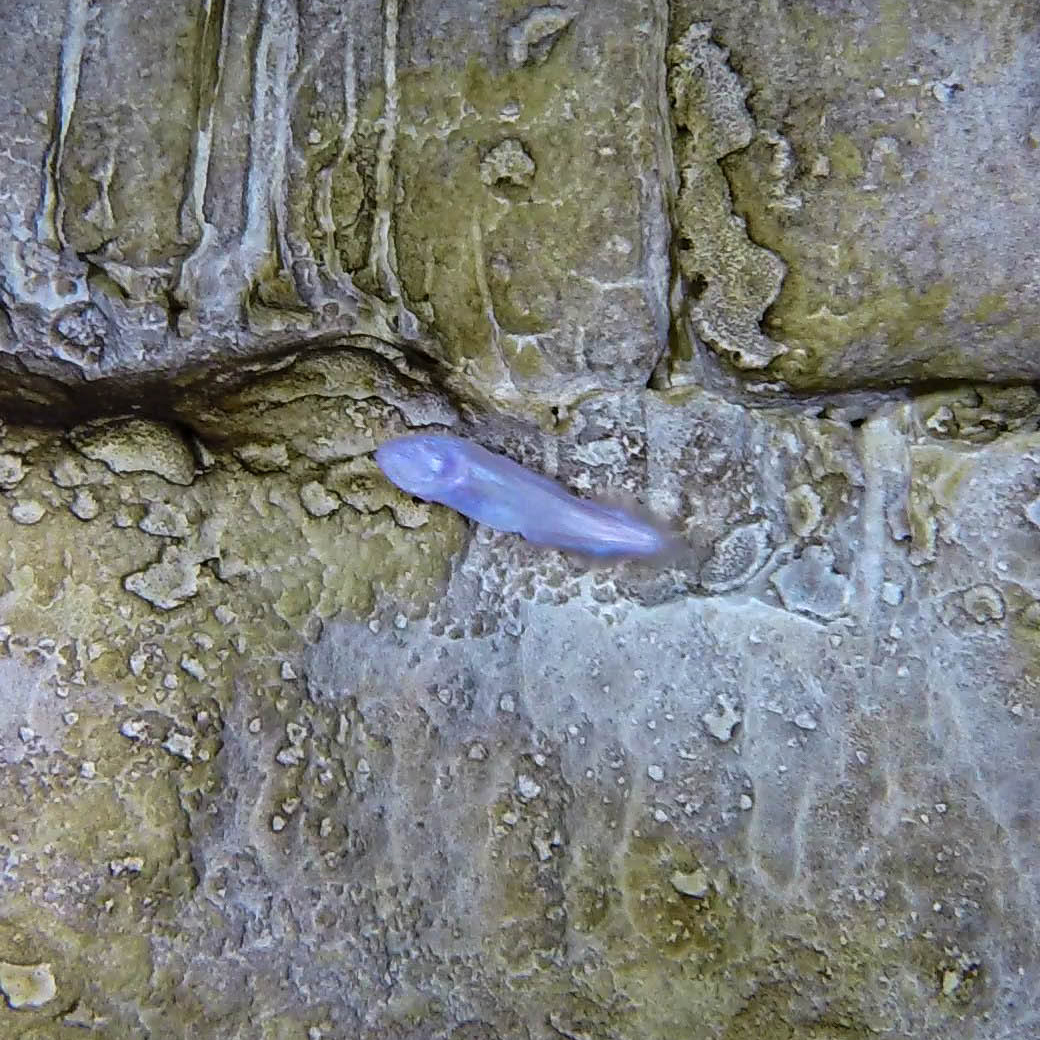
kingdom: Animalia
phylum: Chordata
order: Ophidiiformes
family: Bythitidae
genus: Typhliasina
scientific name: Typhliasina pearsei
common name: Dama ciega blanca
